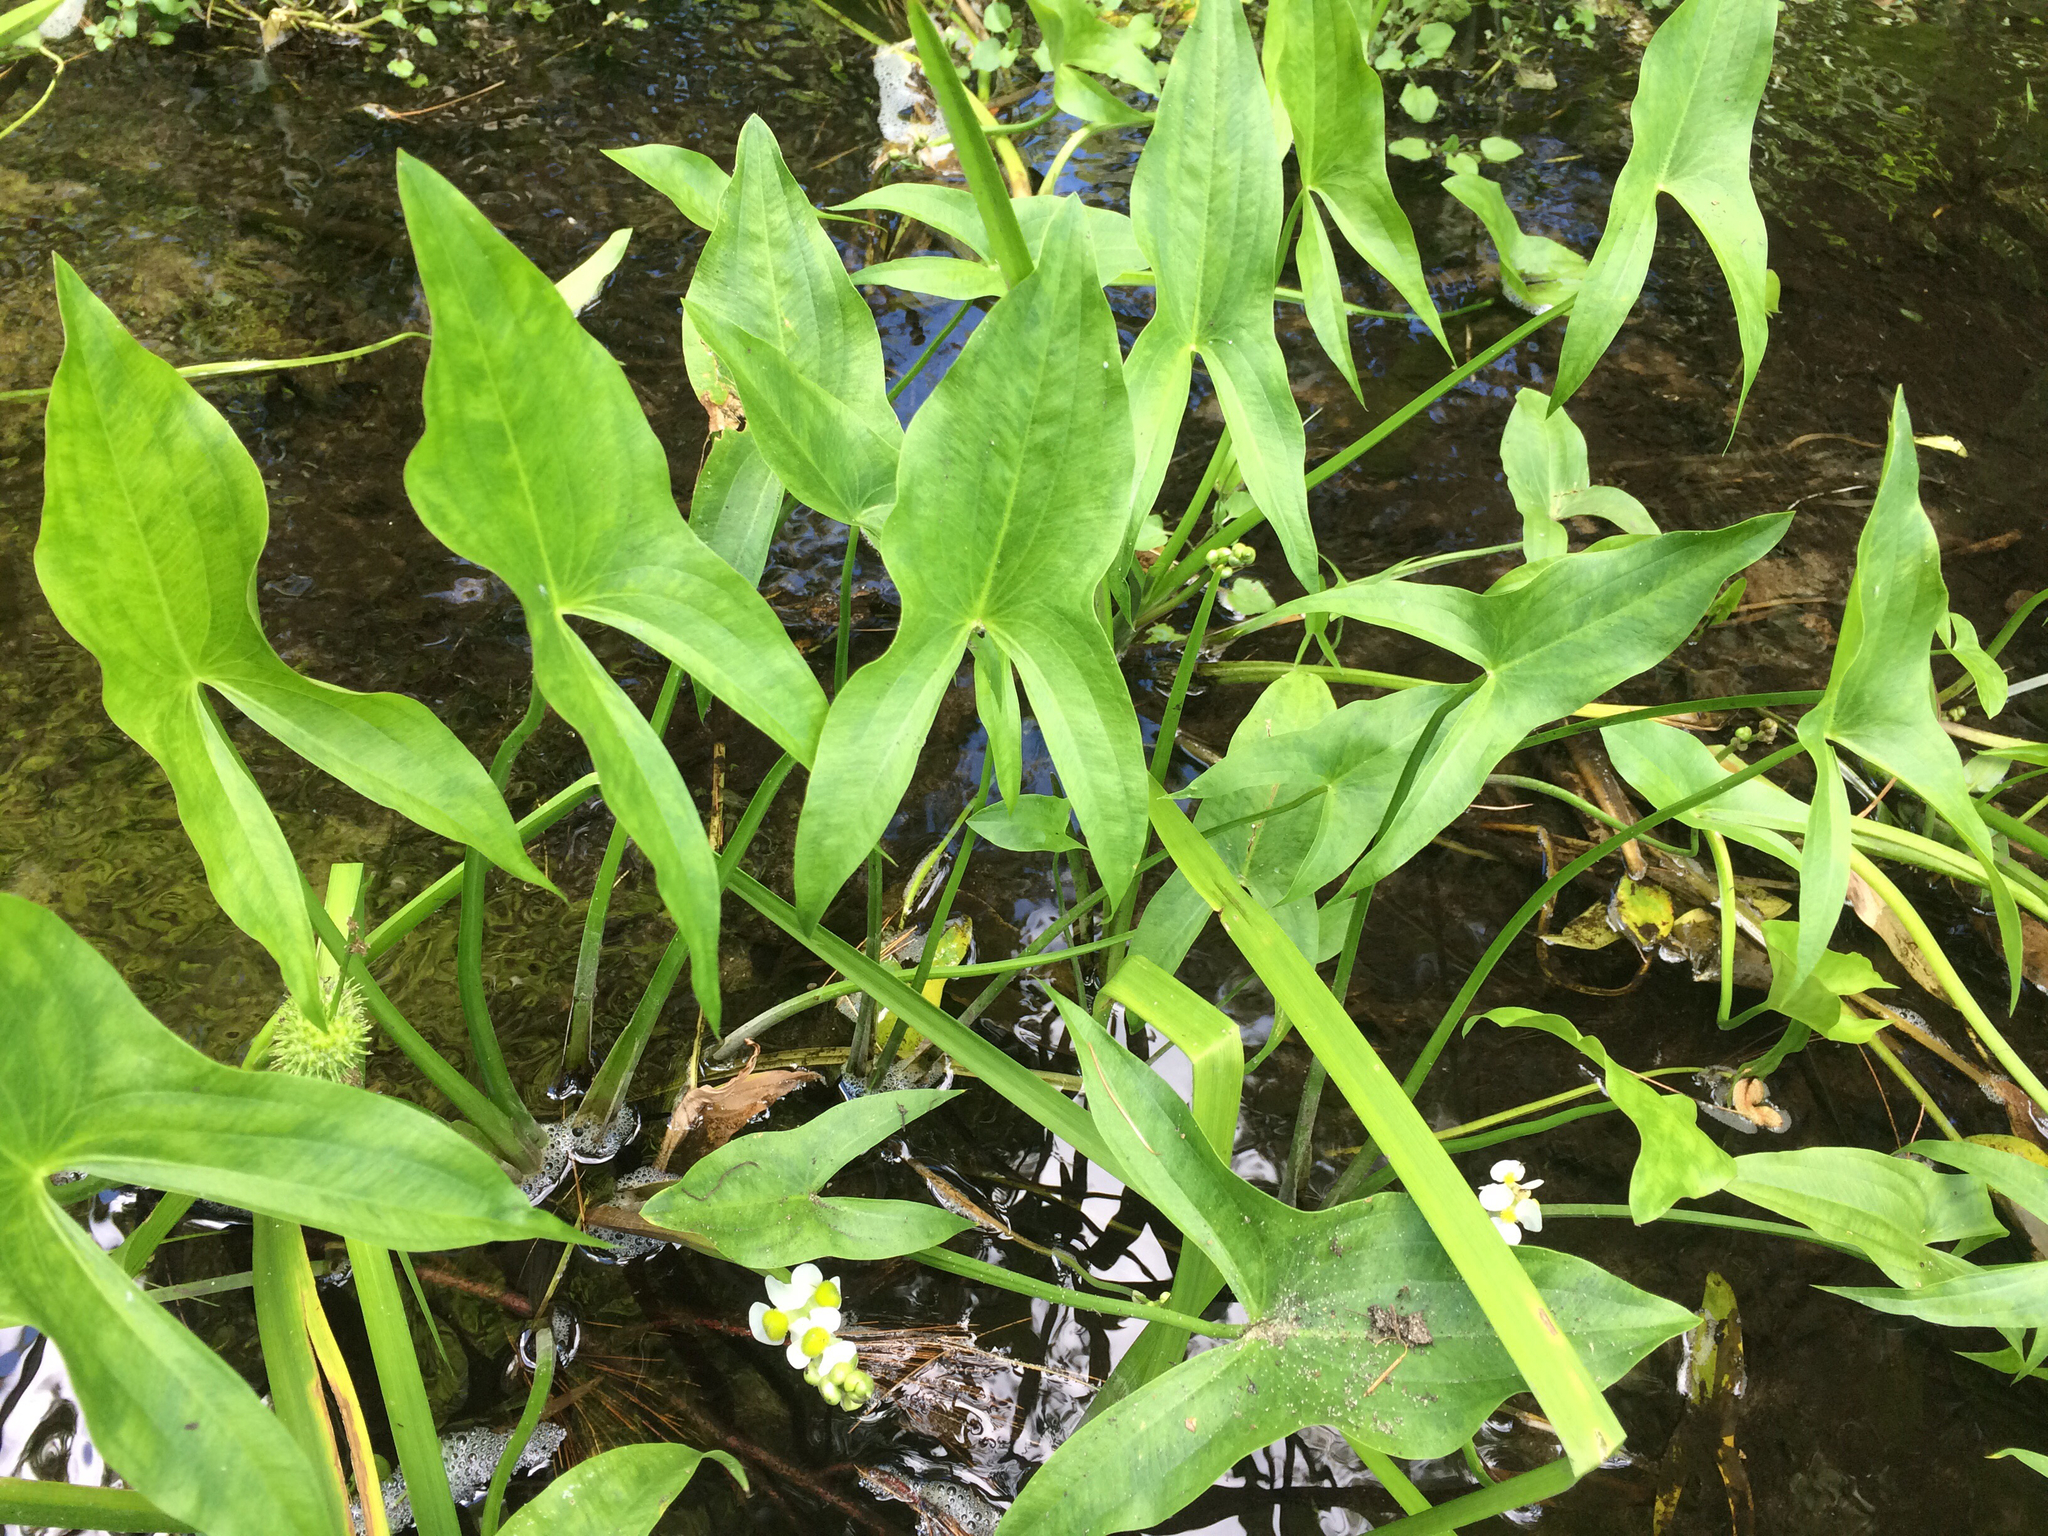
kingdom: Plantae
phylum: Tracheophyta
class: Liliopsida
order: Alismatales
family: Alismataceae
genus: Sagittaria
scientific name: Sagittaria latifolia
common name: Duck-potato
